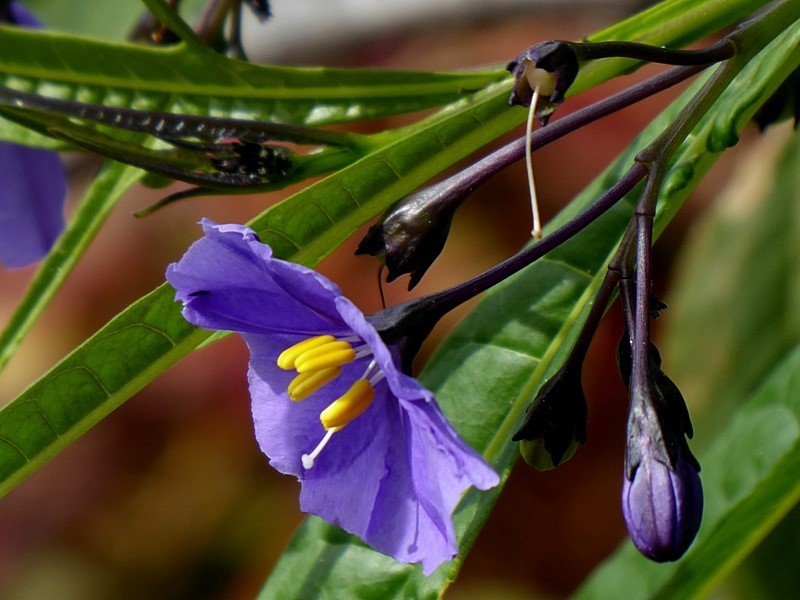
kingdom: Plantae
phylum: Tracheophyta
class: Magnoliopsida
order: Solanales
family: Solanaceae
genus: Solanum
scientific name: Solanum vescum
